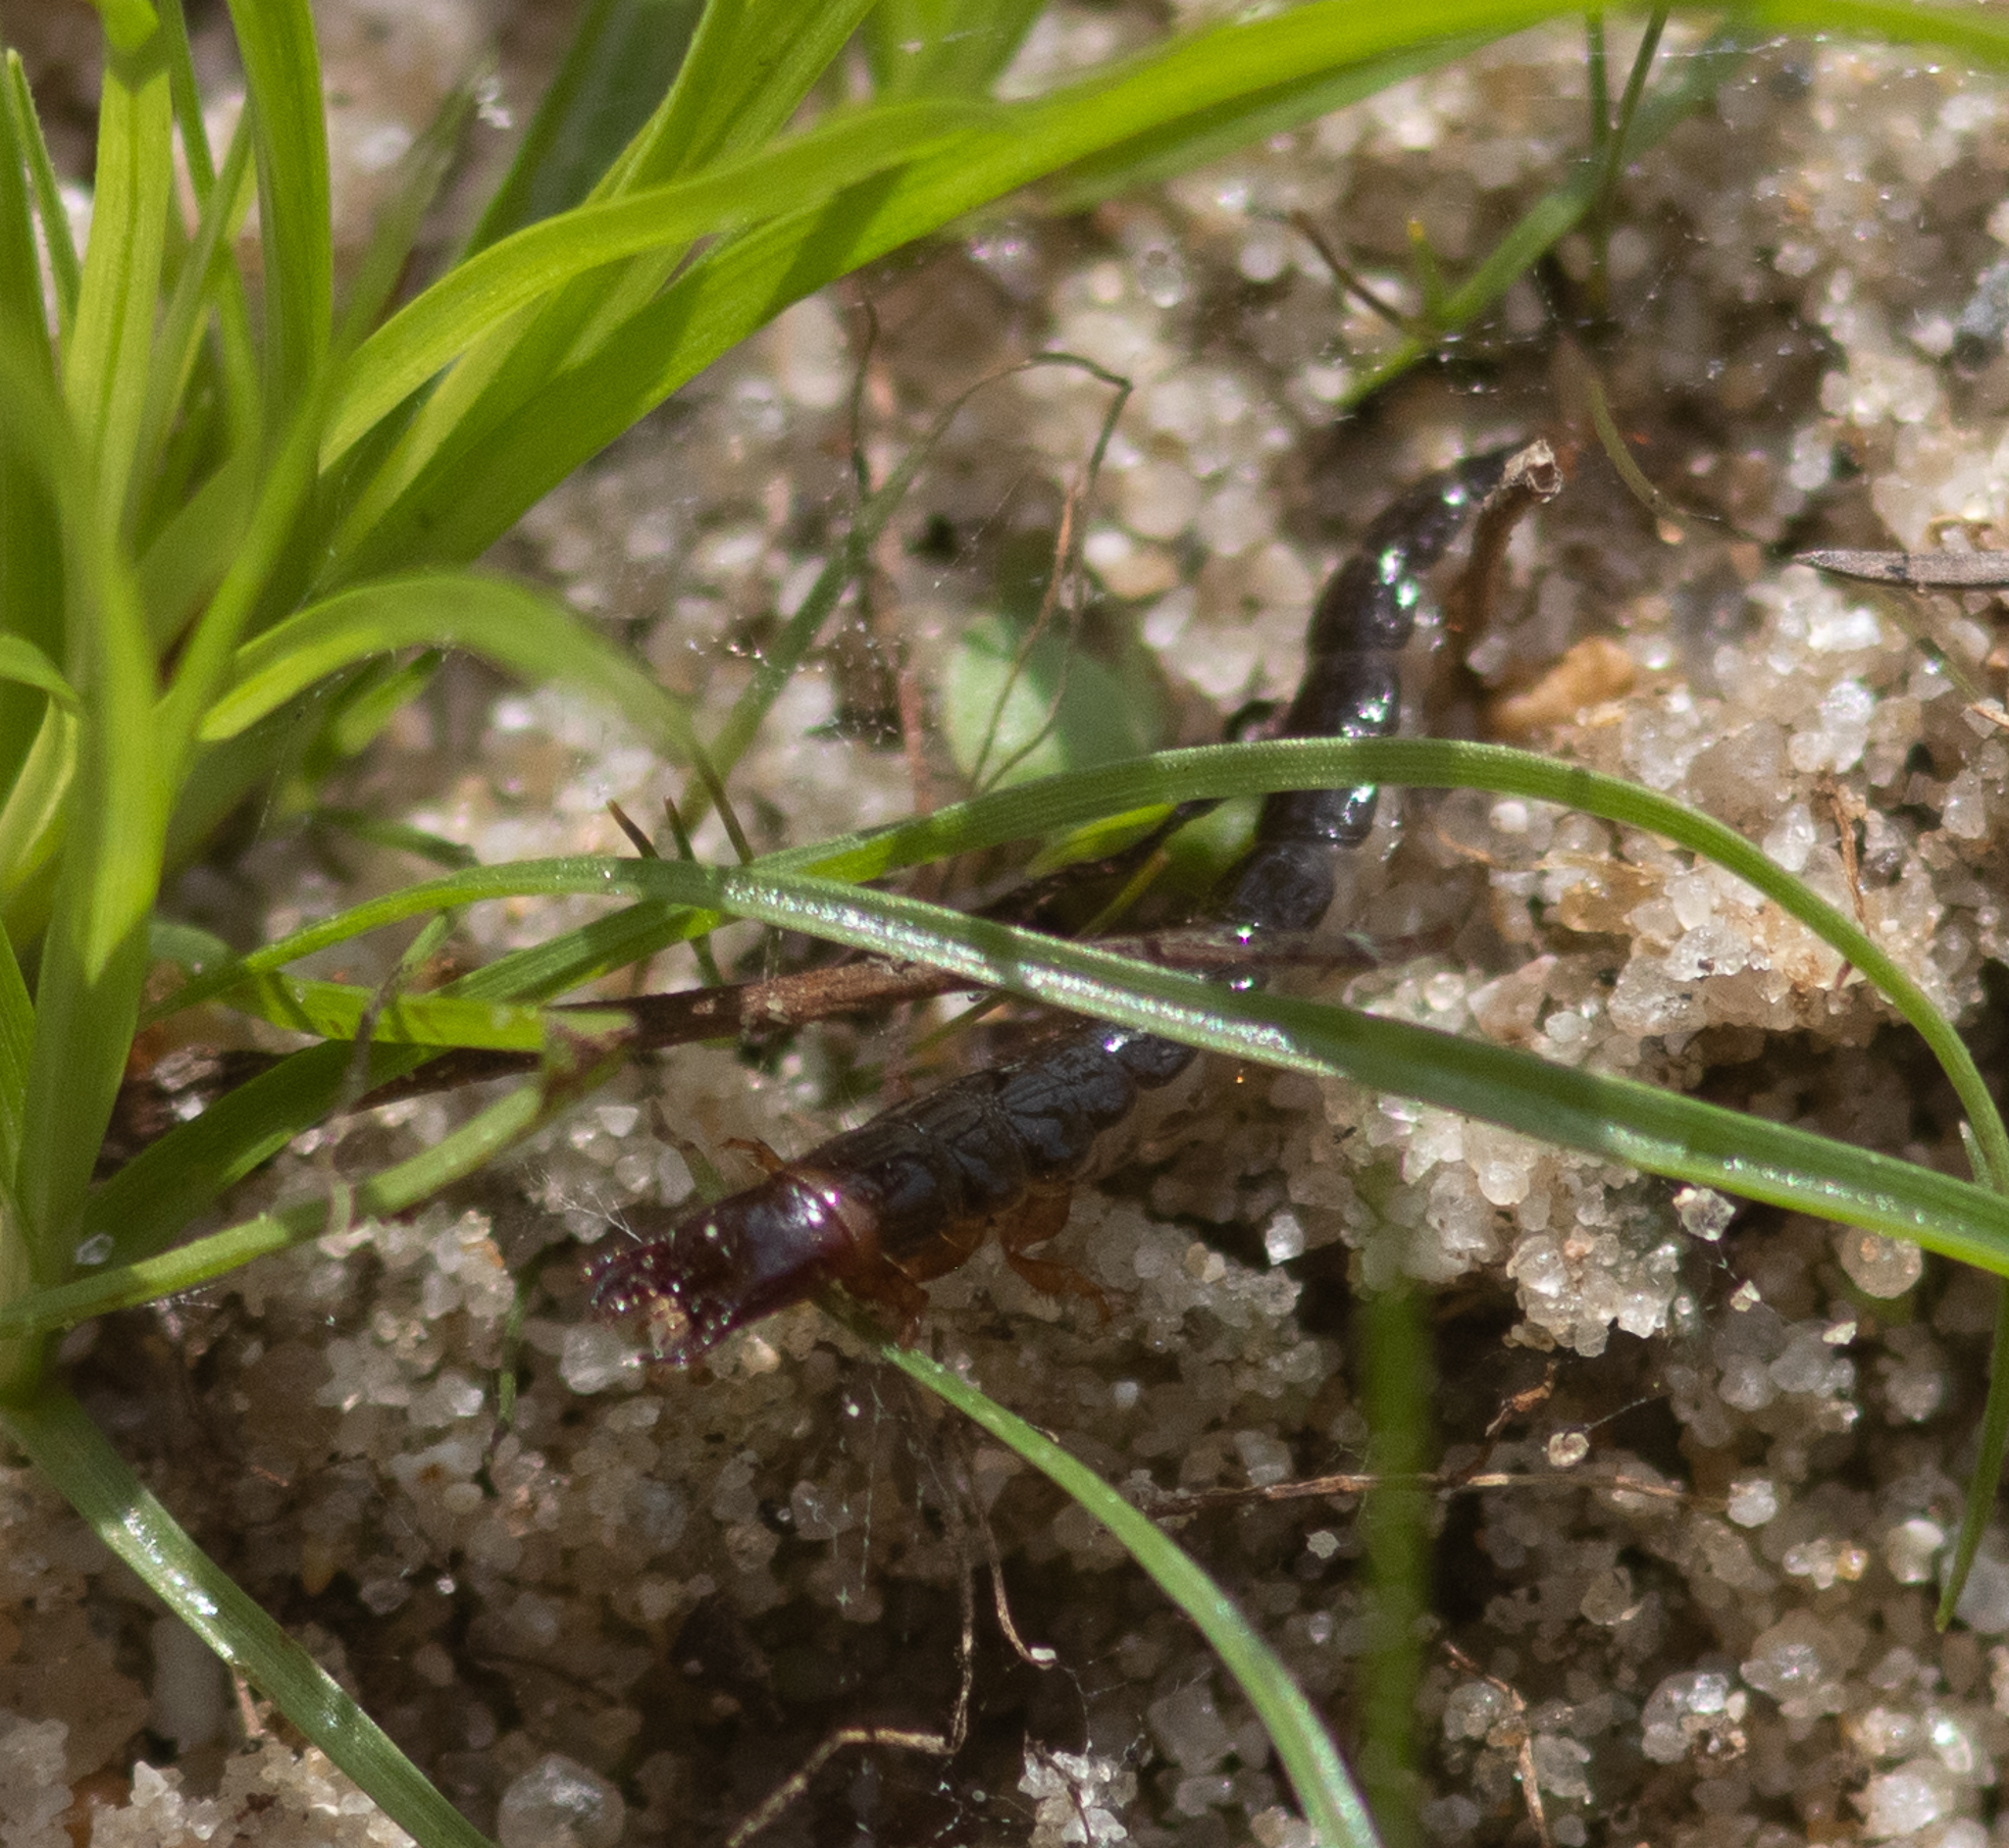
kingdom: Animalia
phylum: Arthropoda
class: Insecta
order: Coleoptera
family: Carabidae
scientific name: Carabidae
